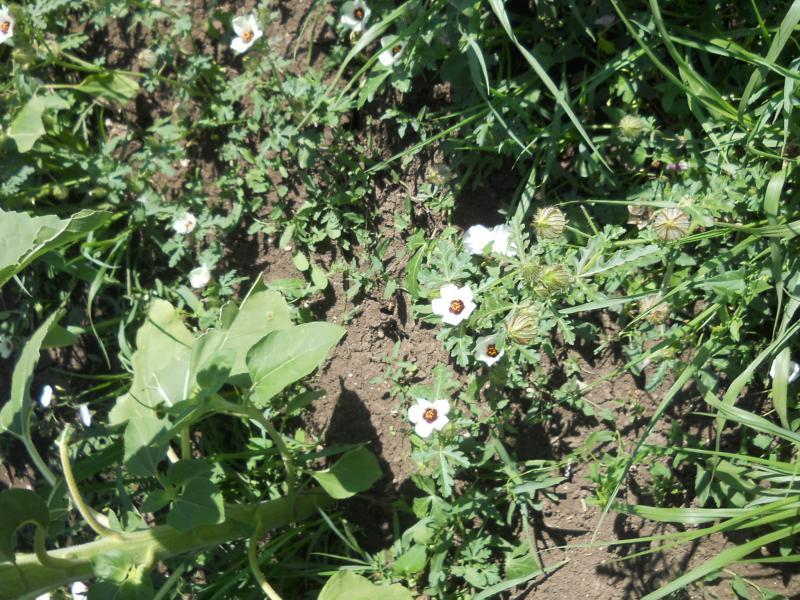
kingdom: Plantae
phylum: Tracheophyta
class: Magnoliopsida
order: Malvales
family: Malvaceae
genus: Hibiscus
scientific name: Hibiscus trionum
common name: Bladder ketmia
